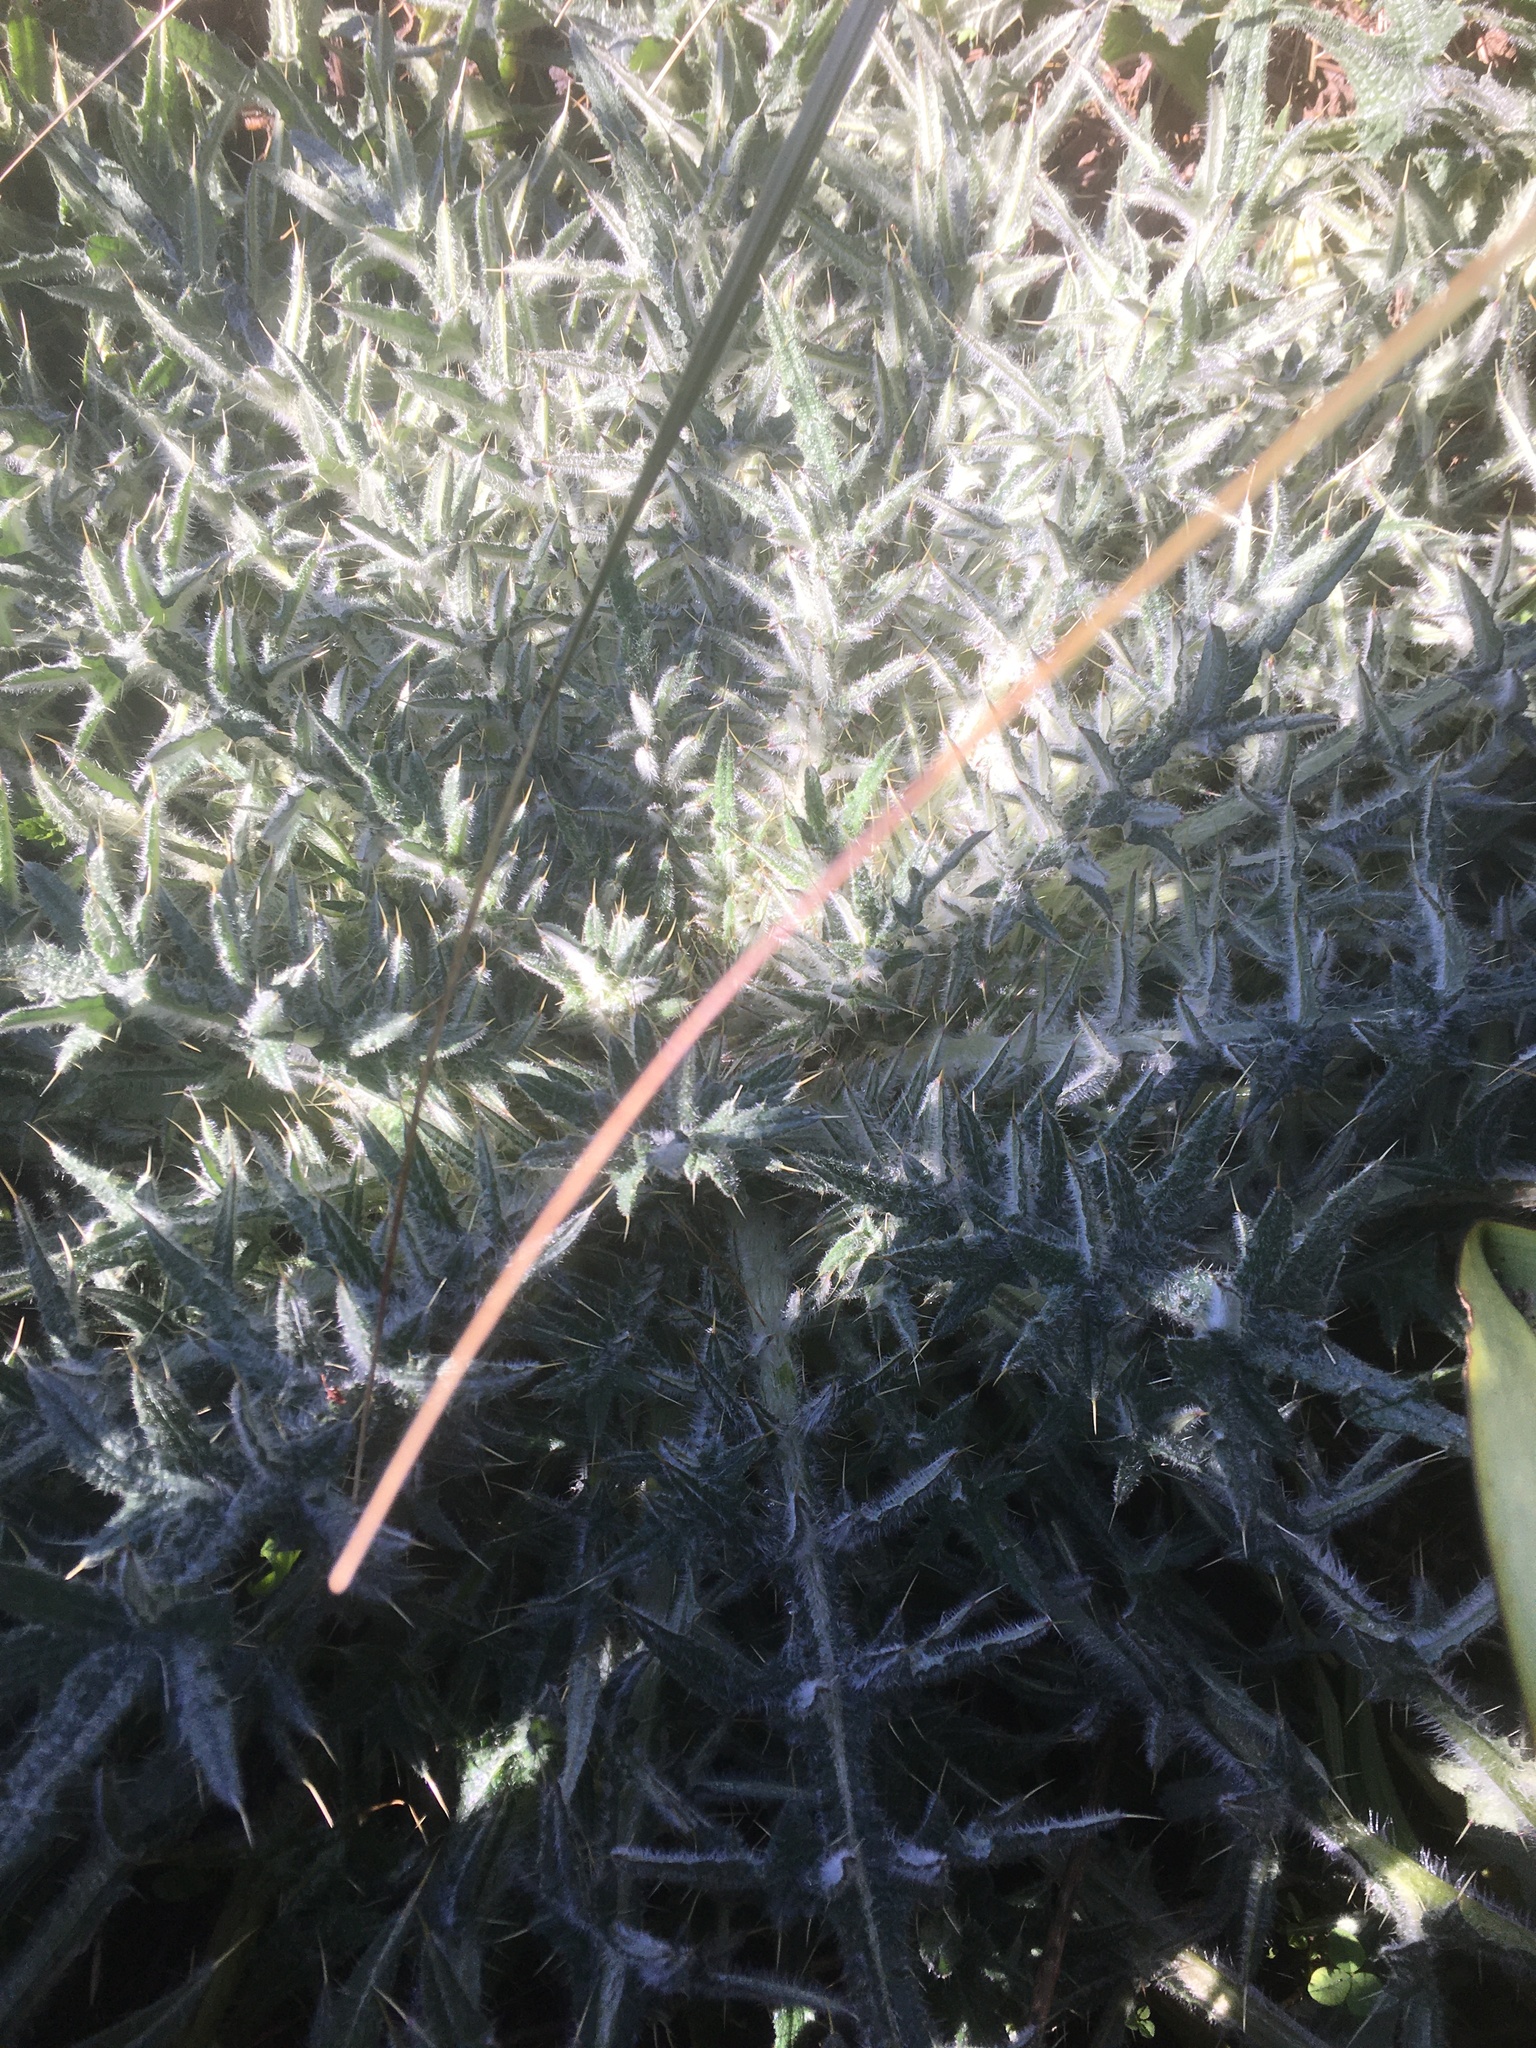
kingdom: Plantae
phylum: Tracheophyta
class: Magnoliopsida
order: Asterales
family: Asteraceae
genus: Cirsium
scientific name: Cirsium vulgare
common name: Bull thistle
